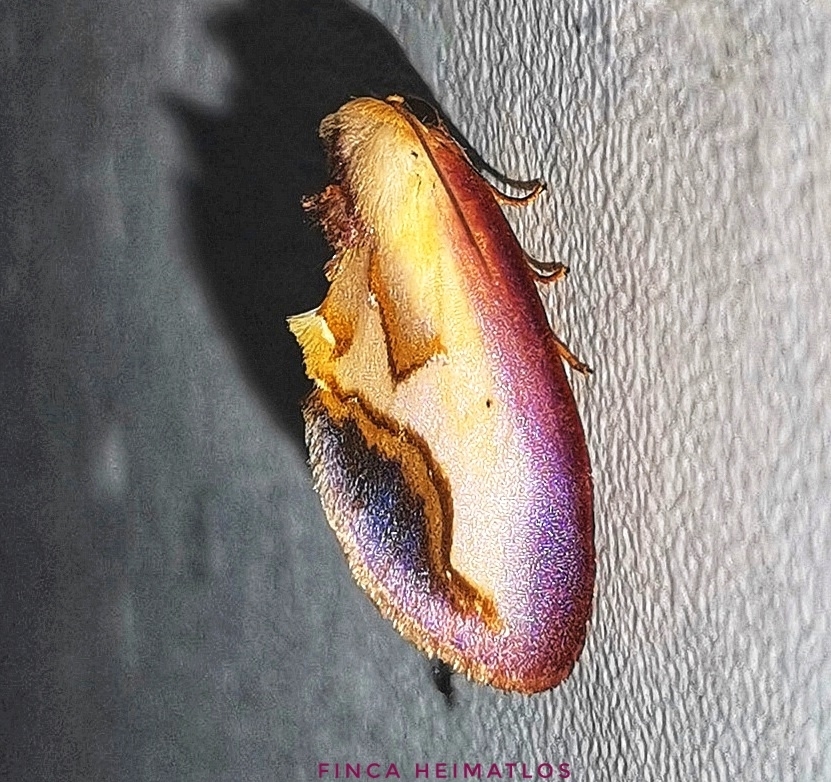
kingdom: Animalia
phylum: Arthropoda
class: Insecta
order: Lepidoptera
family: Notodontidae
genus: Maschane
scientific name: Maschane fragilis
